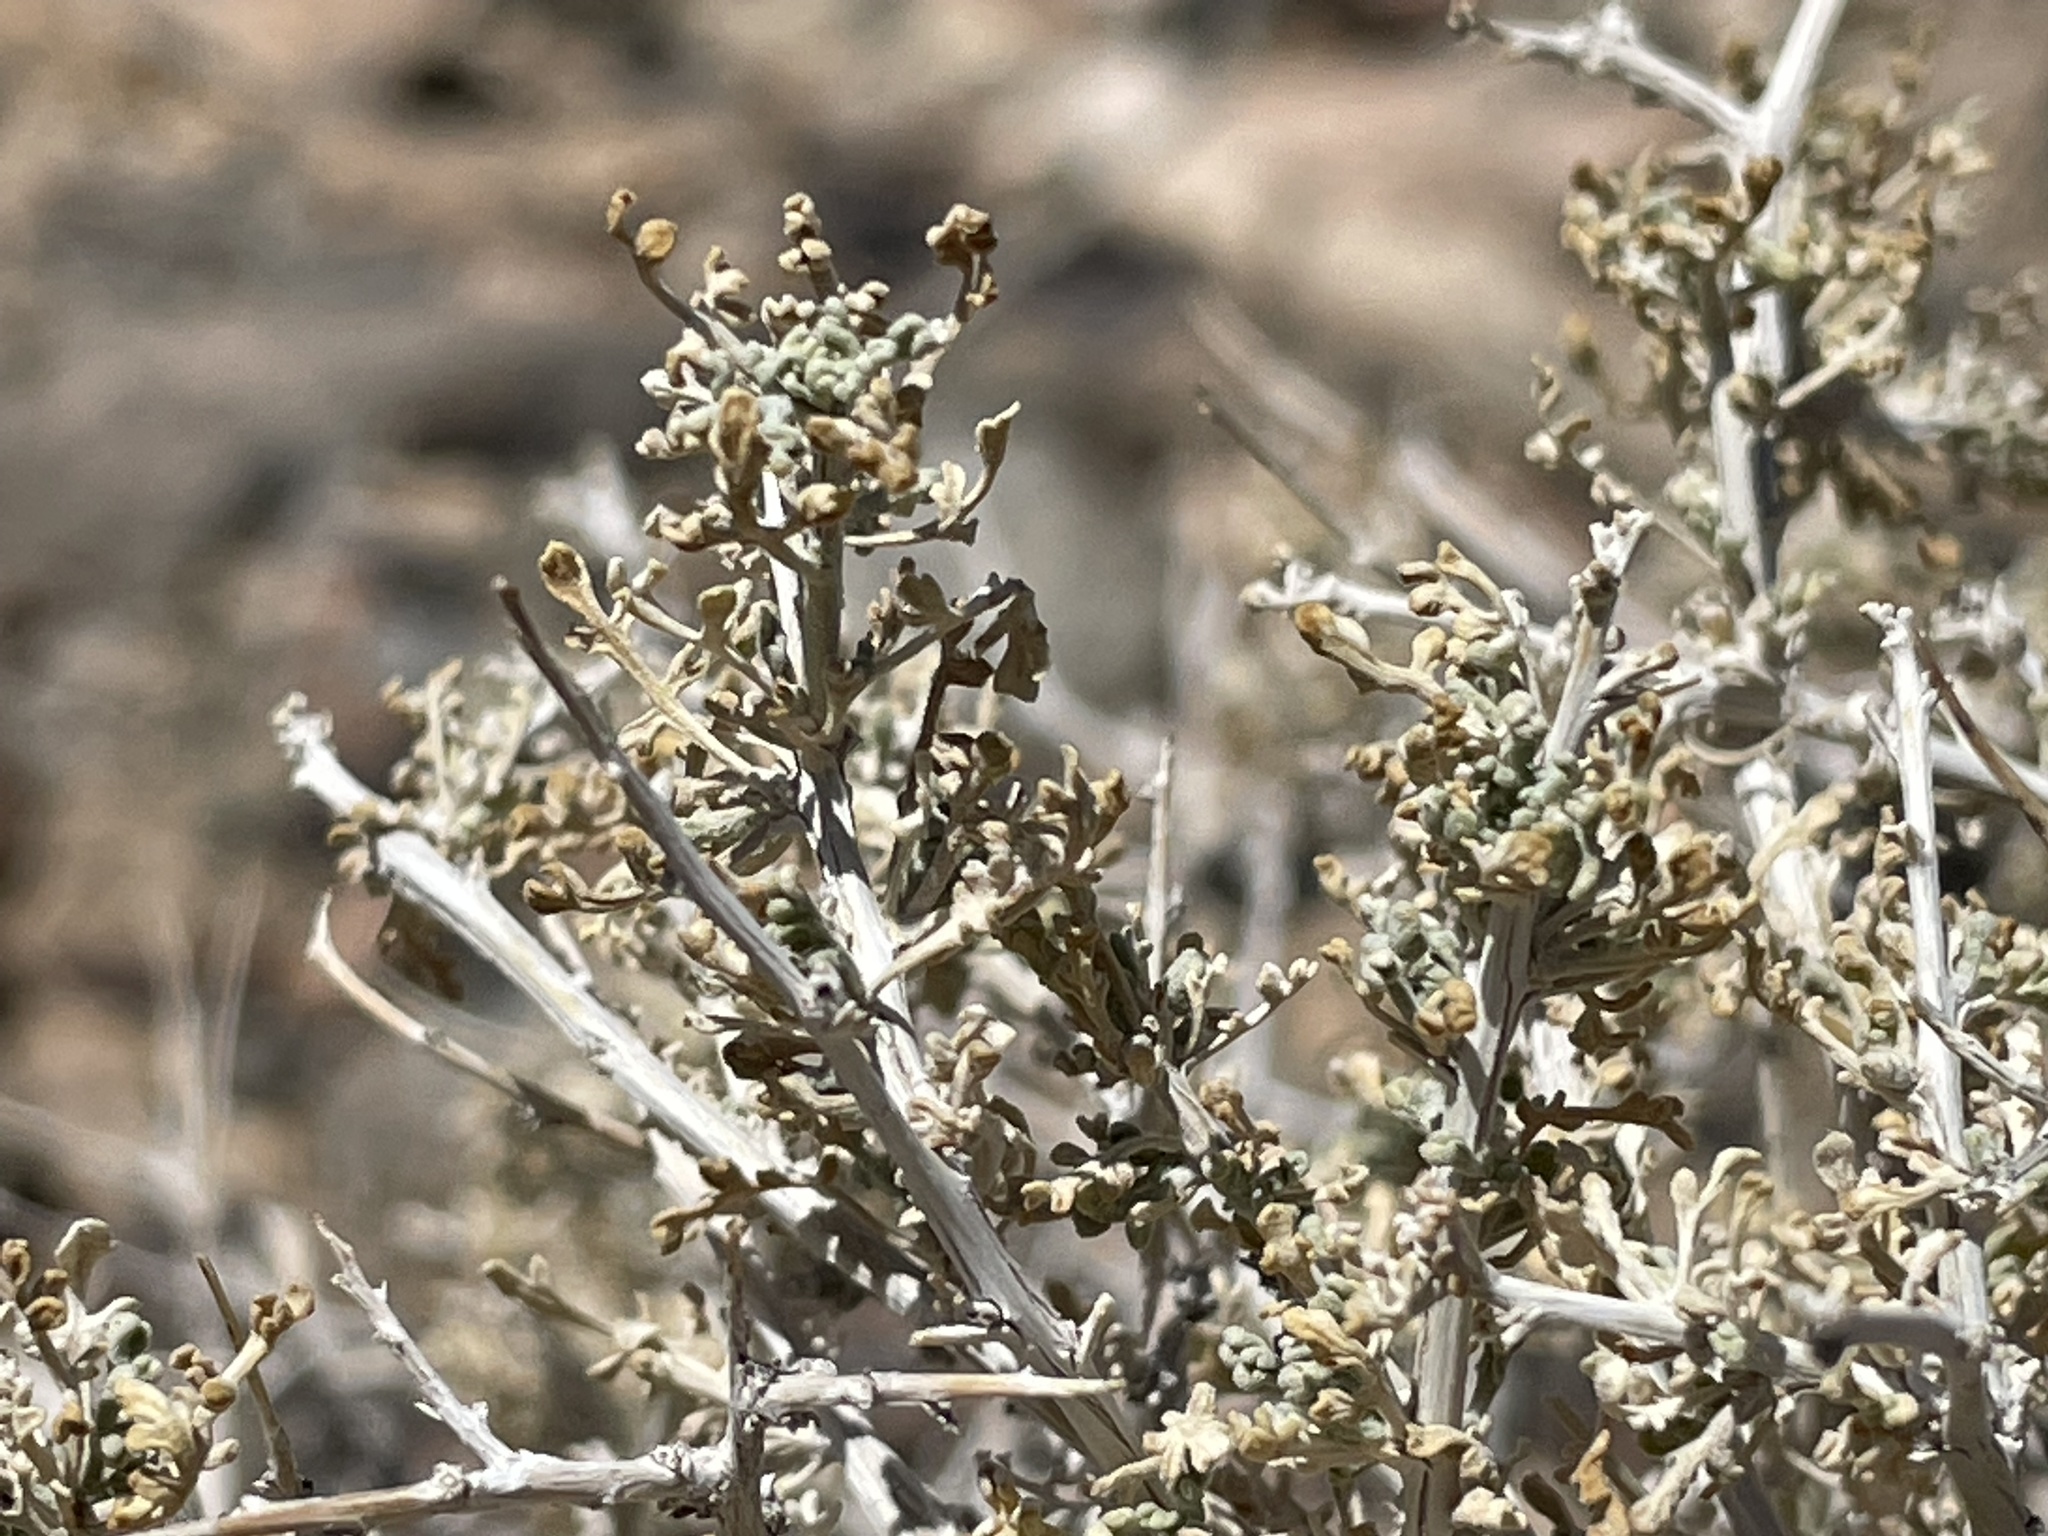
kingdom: Plantae
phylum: Tracheophyta
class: Magnoliopsida
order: Asterales
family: Asteraceae
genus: Ambrosia
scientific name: Ambrosia dumosa
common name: Bur-sage
